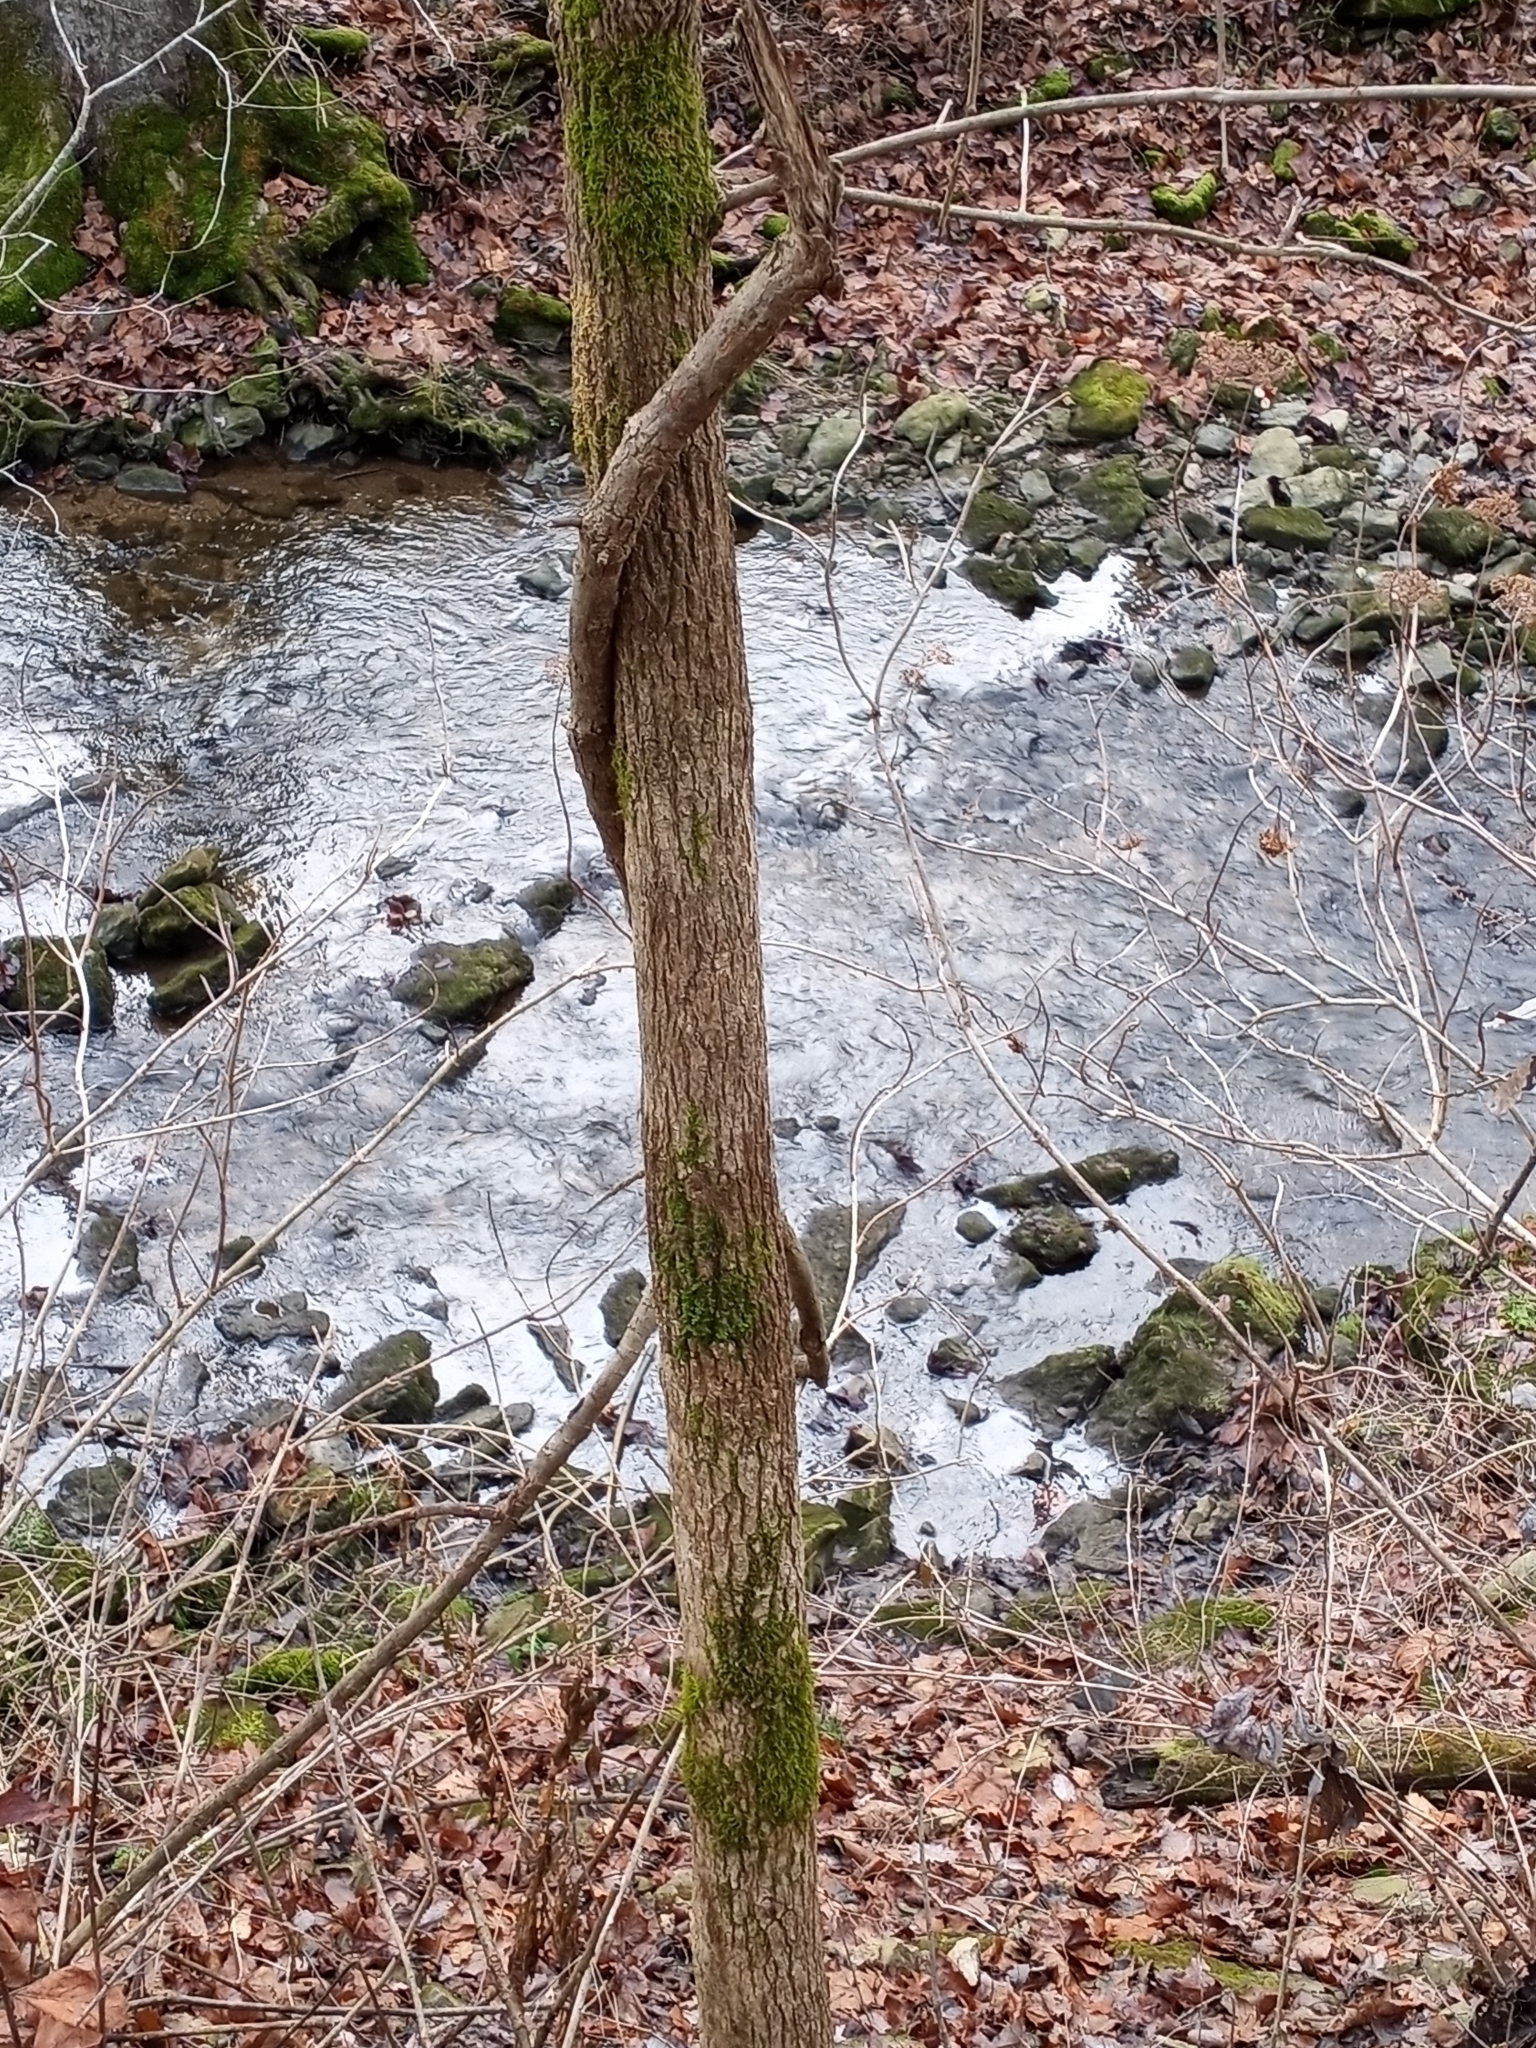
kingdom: Plantae
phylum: Tracheophyta
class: Magnoliopsida
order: Lamiales
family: Oleaceae
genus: Fraxinus
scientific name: Fraxinus quadrangulata
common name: Blue ash
